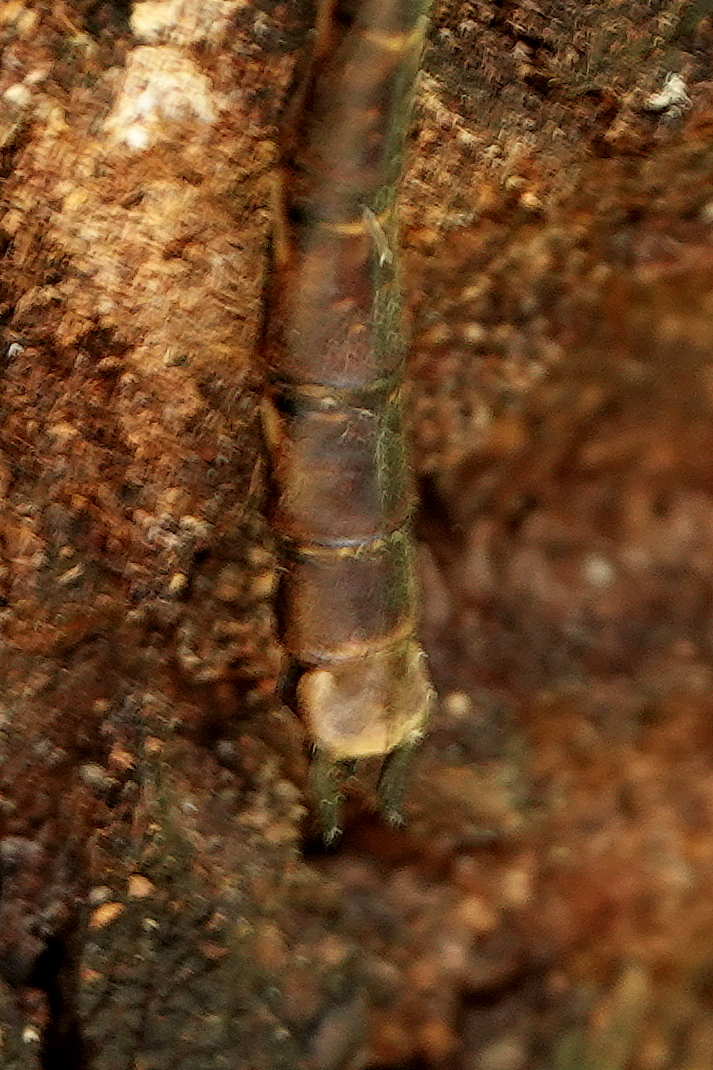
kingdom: Animalia
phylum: Arthropoda
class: Insecta
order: Odonata
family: Aeshnidae
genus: Acanthaeschna
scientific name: Acanthaeschna victoria
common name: Thylacine darner
